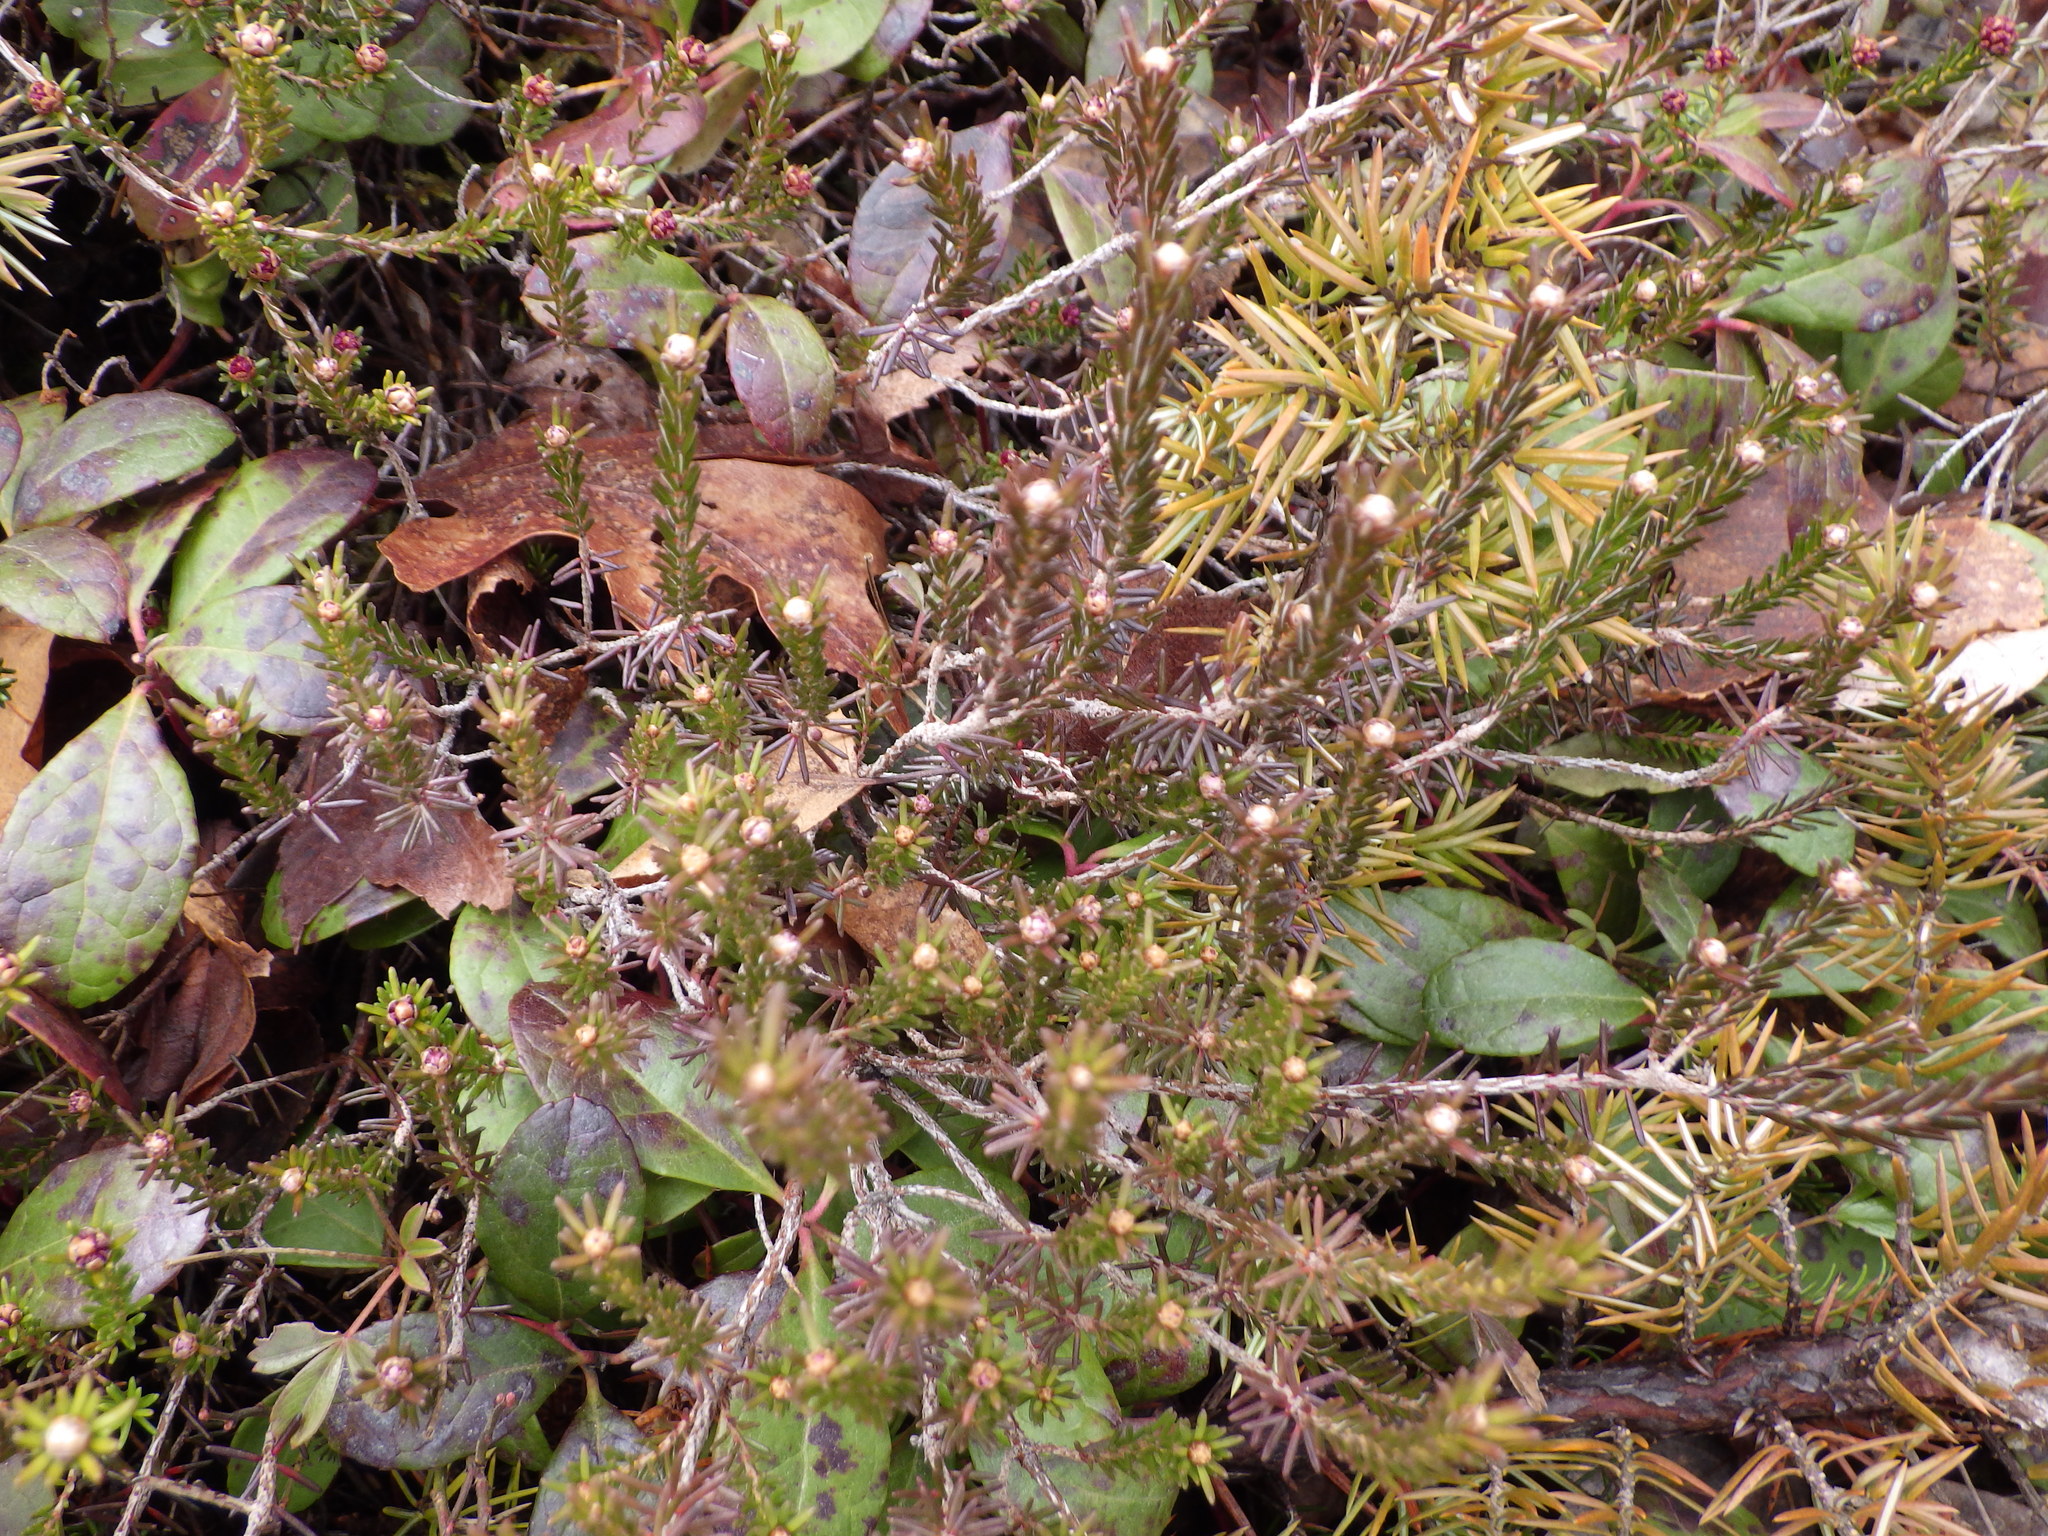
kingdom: Plantae
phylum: Tracheophyta
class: Magnoliopsida
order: Ericales
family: Ericaceae
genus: Corema
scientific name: Corema conradii
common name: Broom-crowberry
